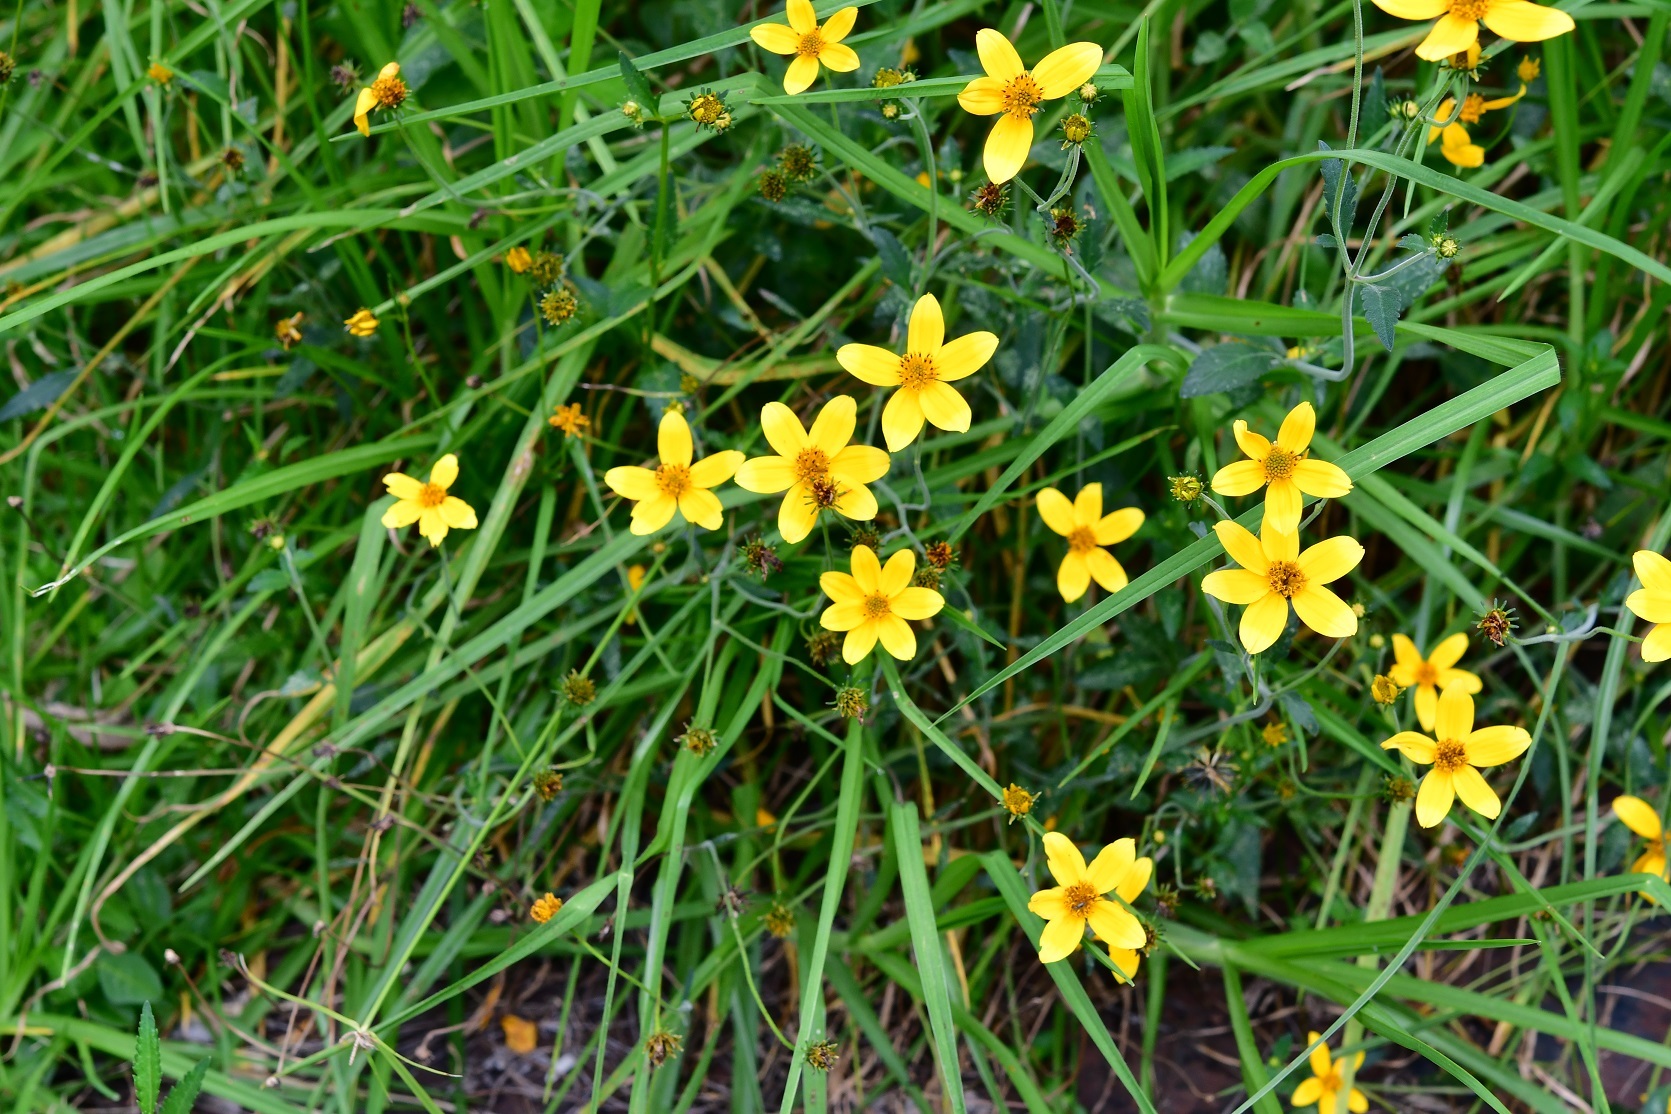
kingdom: Plantae
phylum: Tracheophyta
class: Magnoliopsida
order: Asterales
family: Asteraceae
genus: Bidens
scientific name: Bidens aurea
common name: Arizona beggar-ticks
